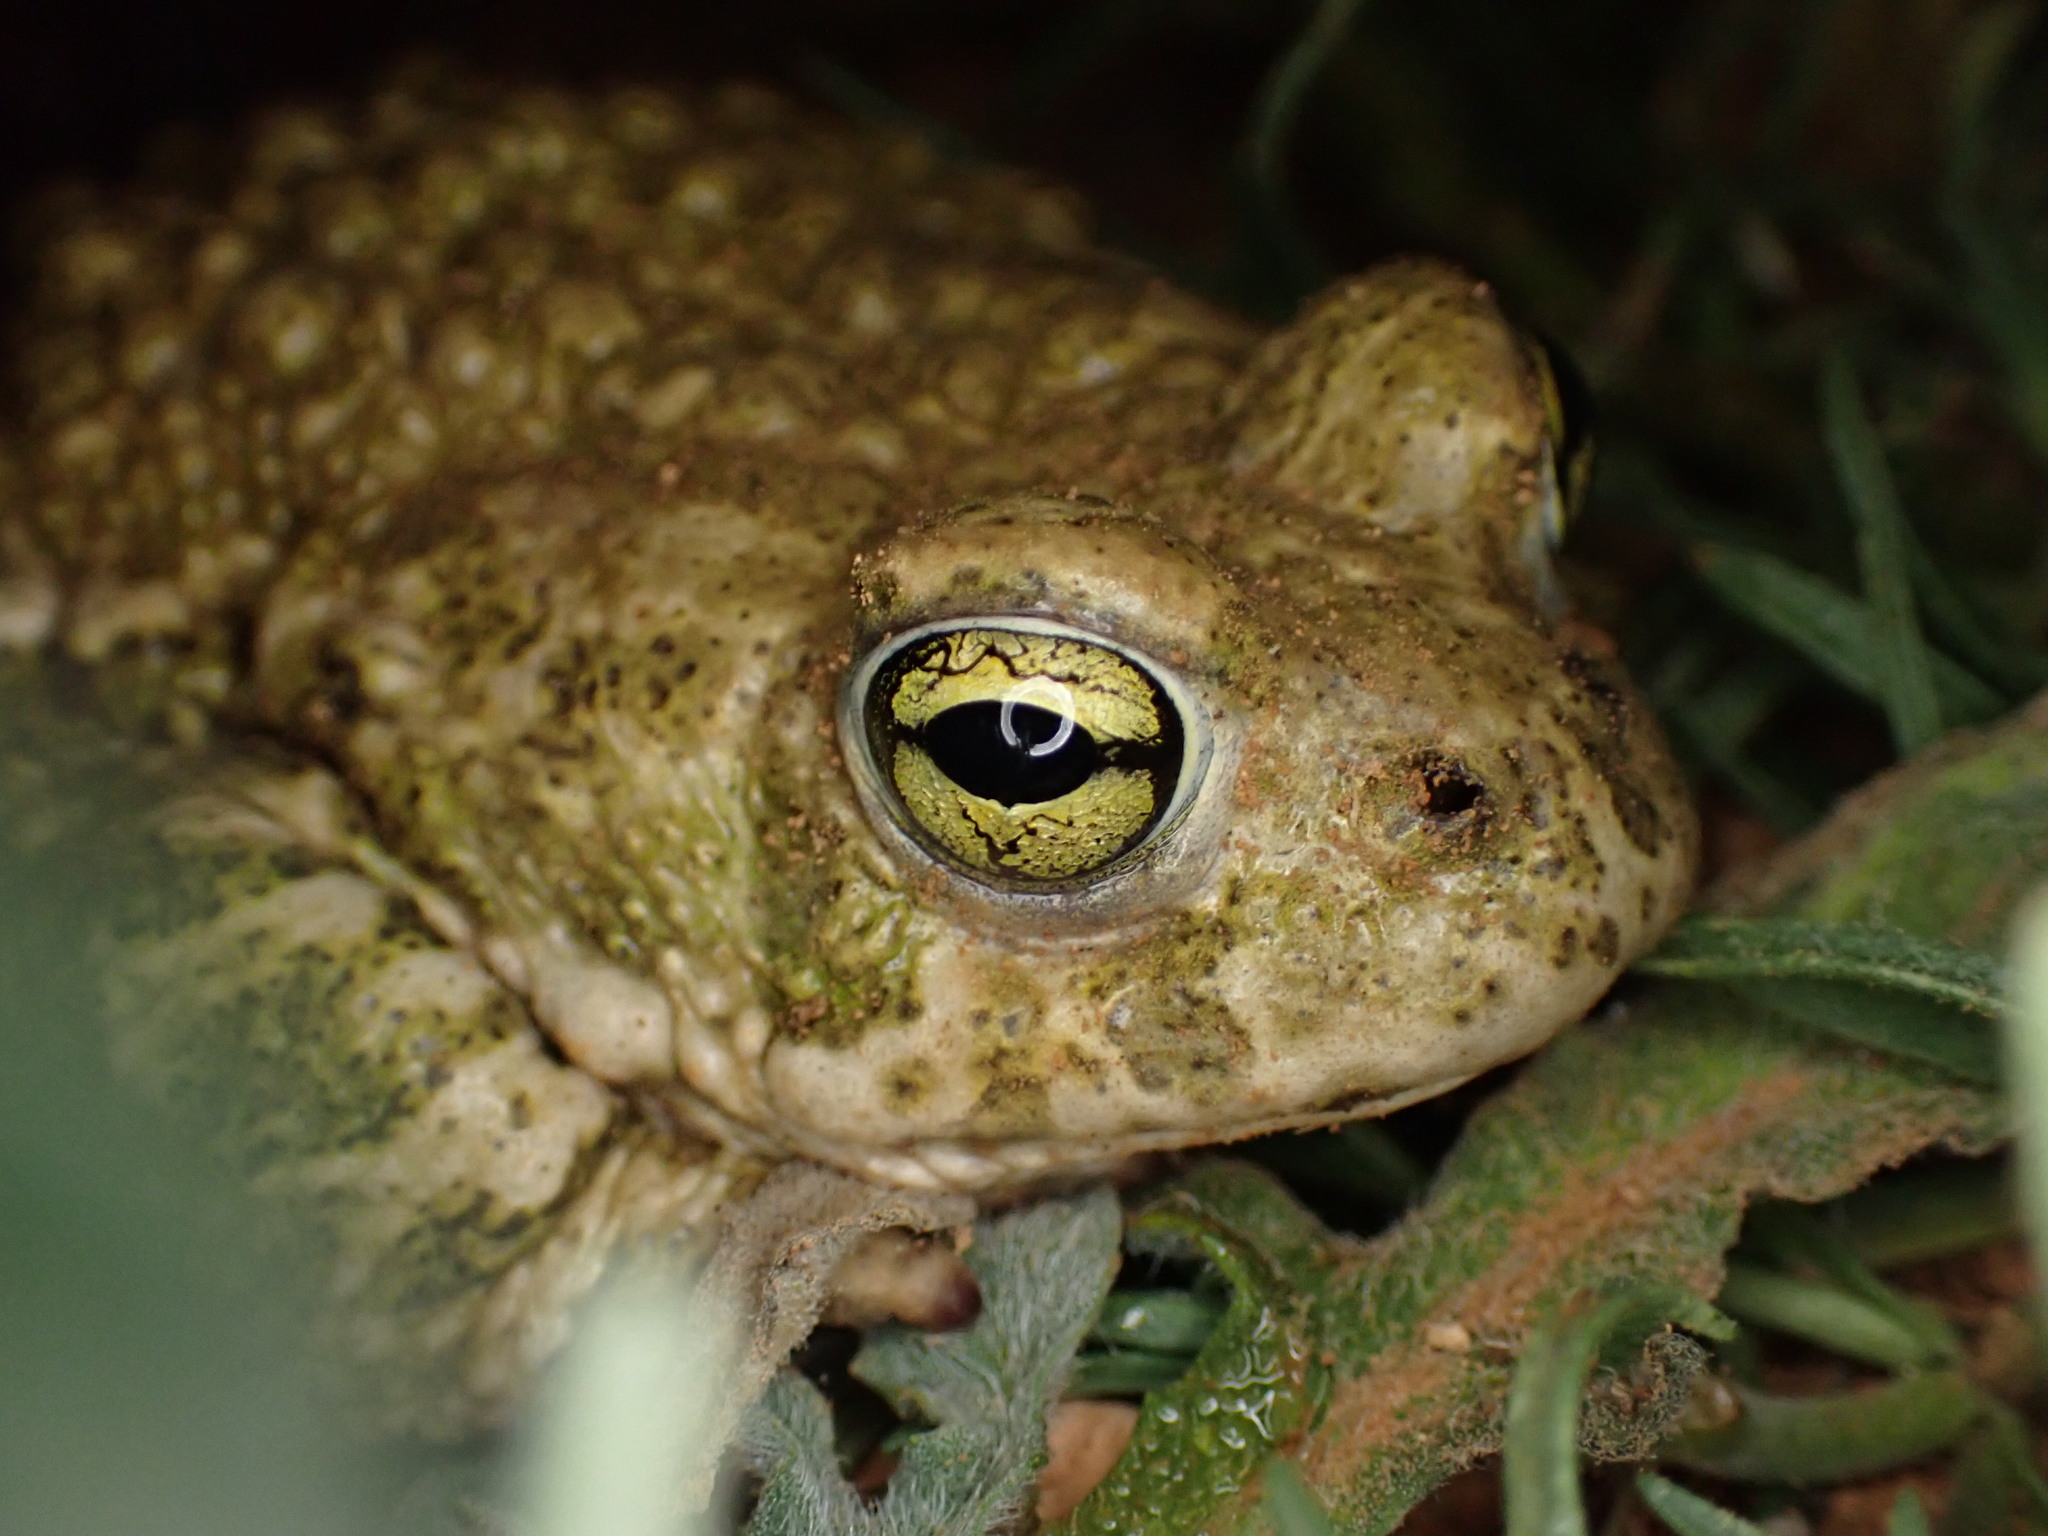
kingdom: Animalia
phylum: Chordata
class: Amphibia
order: Anura
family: Bufonidae
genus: Epidalea
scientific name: Epidalea calamita
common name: Natterjack toad
